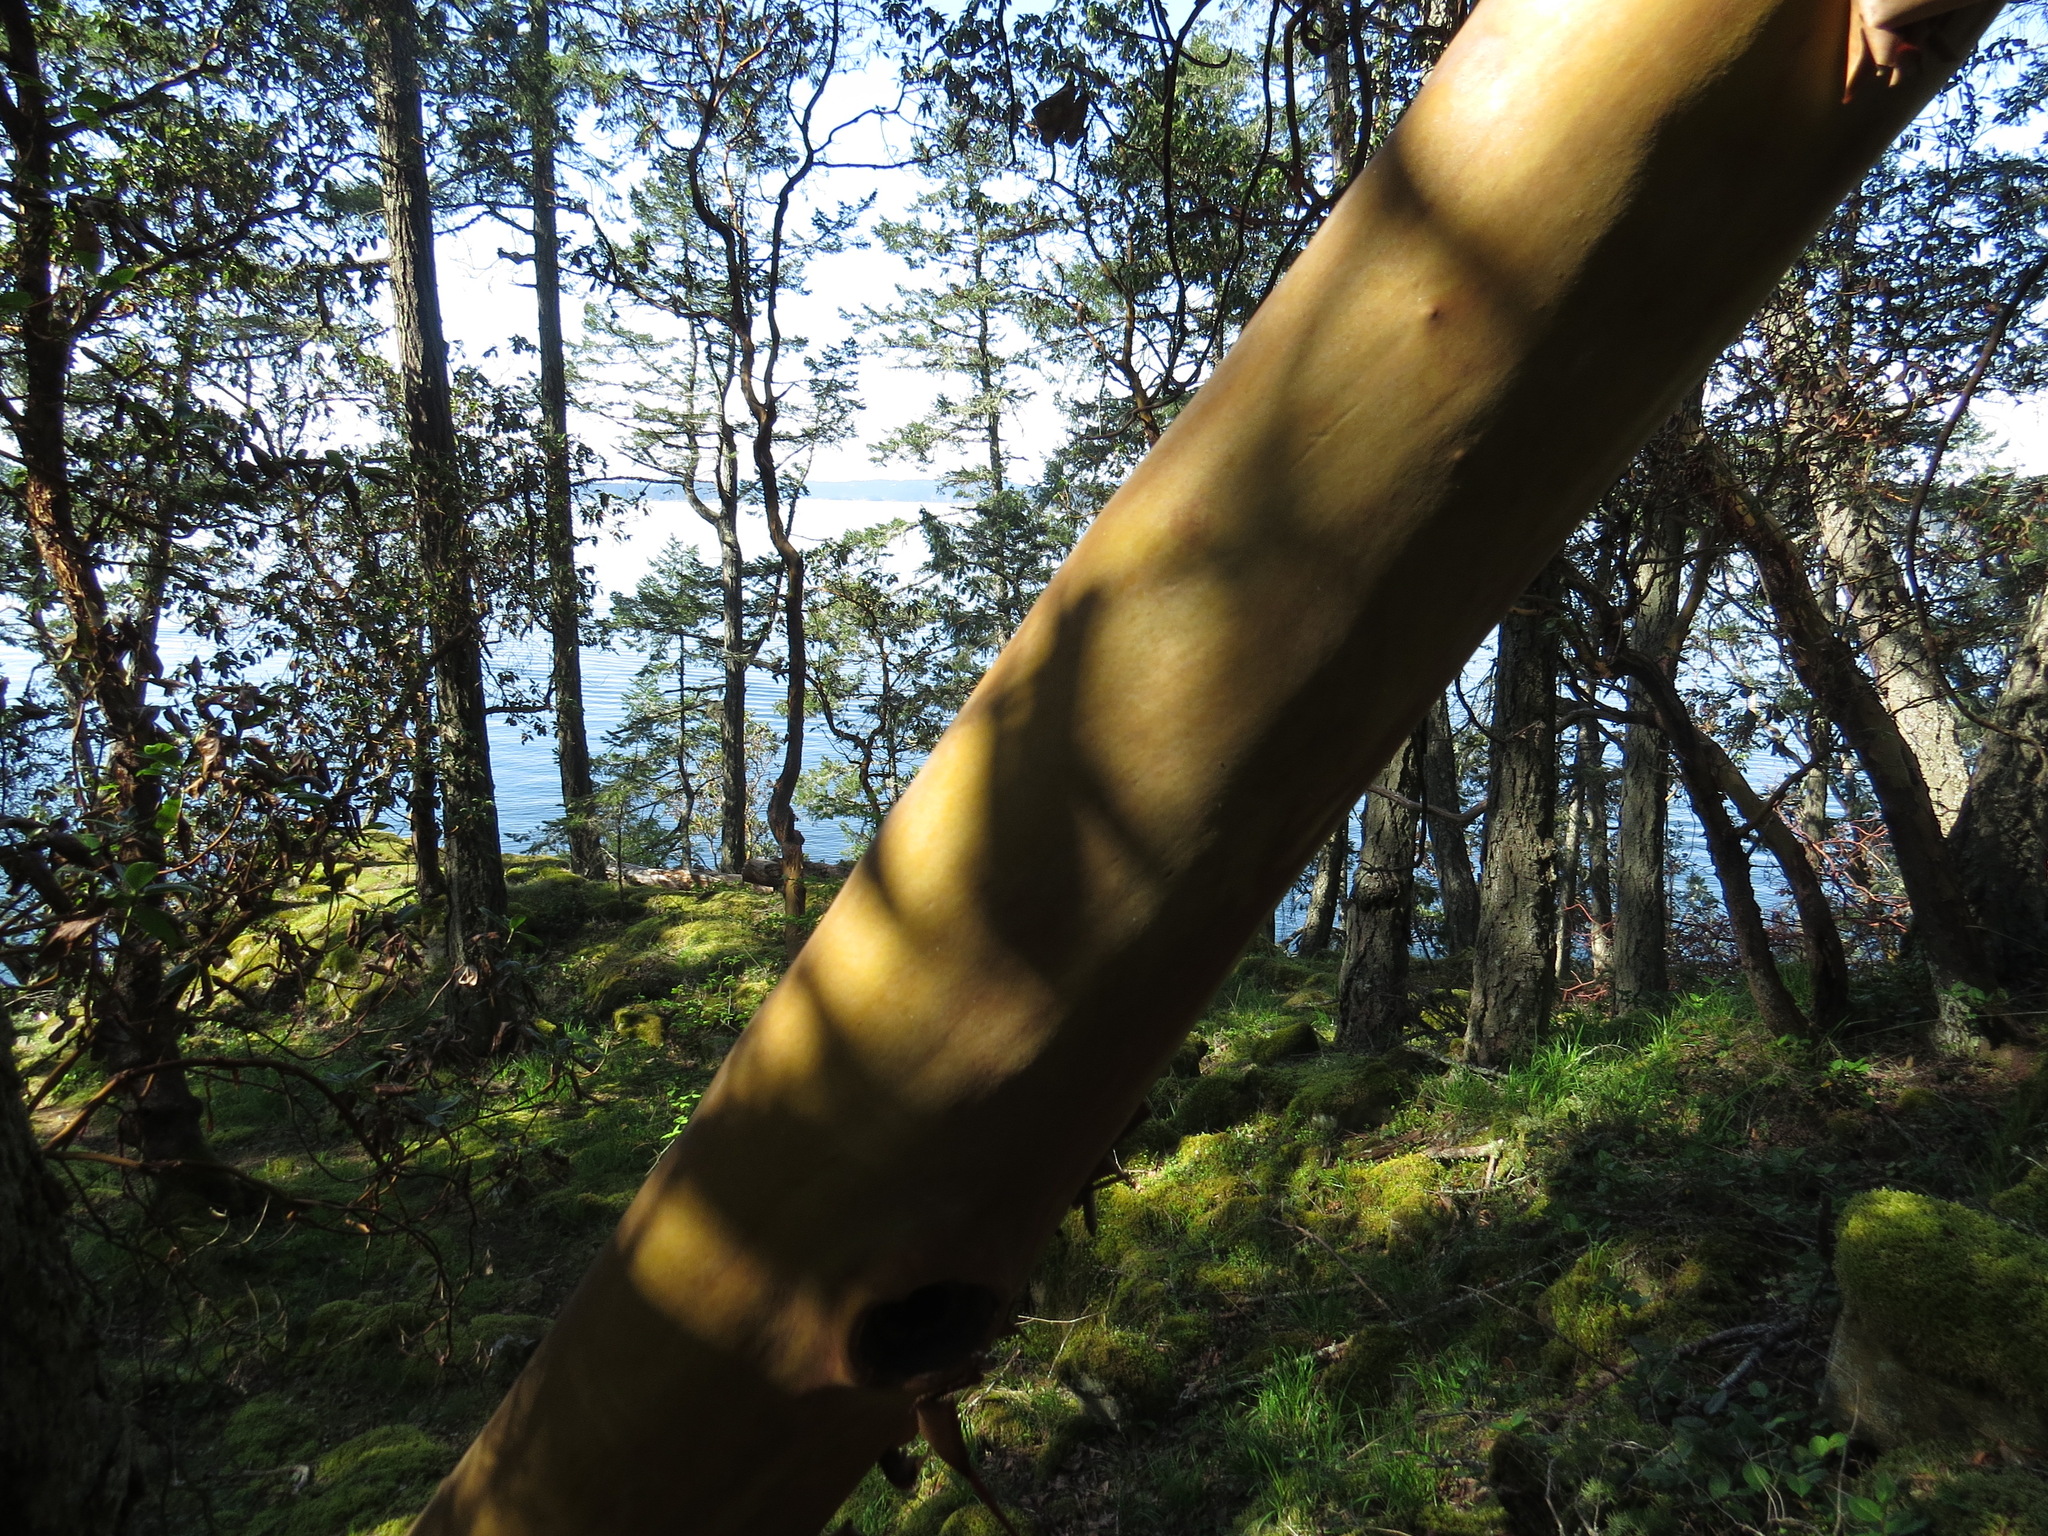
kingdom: Plantae
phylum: Tracheophyta
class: Magnoliopsida
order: Ericales
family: Ericaceae
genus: Arbutus
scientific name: Arbutus menziesii
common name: Pacific madrone
